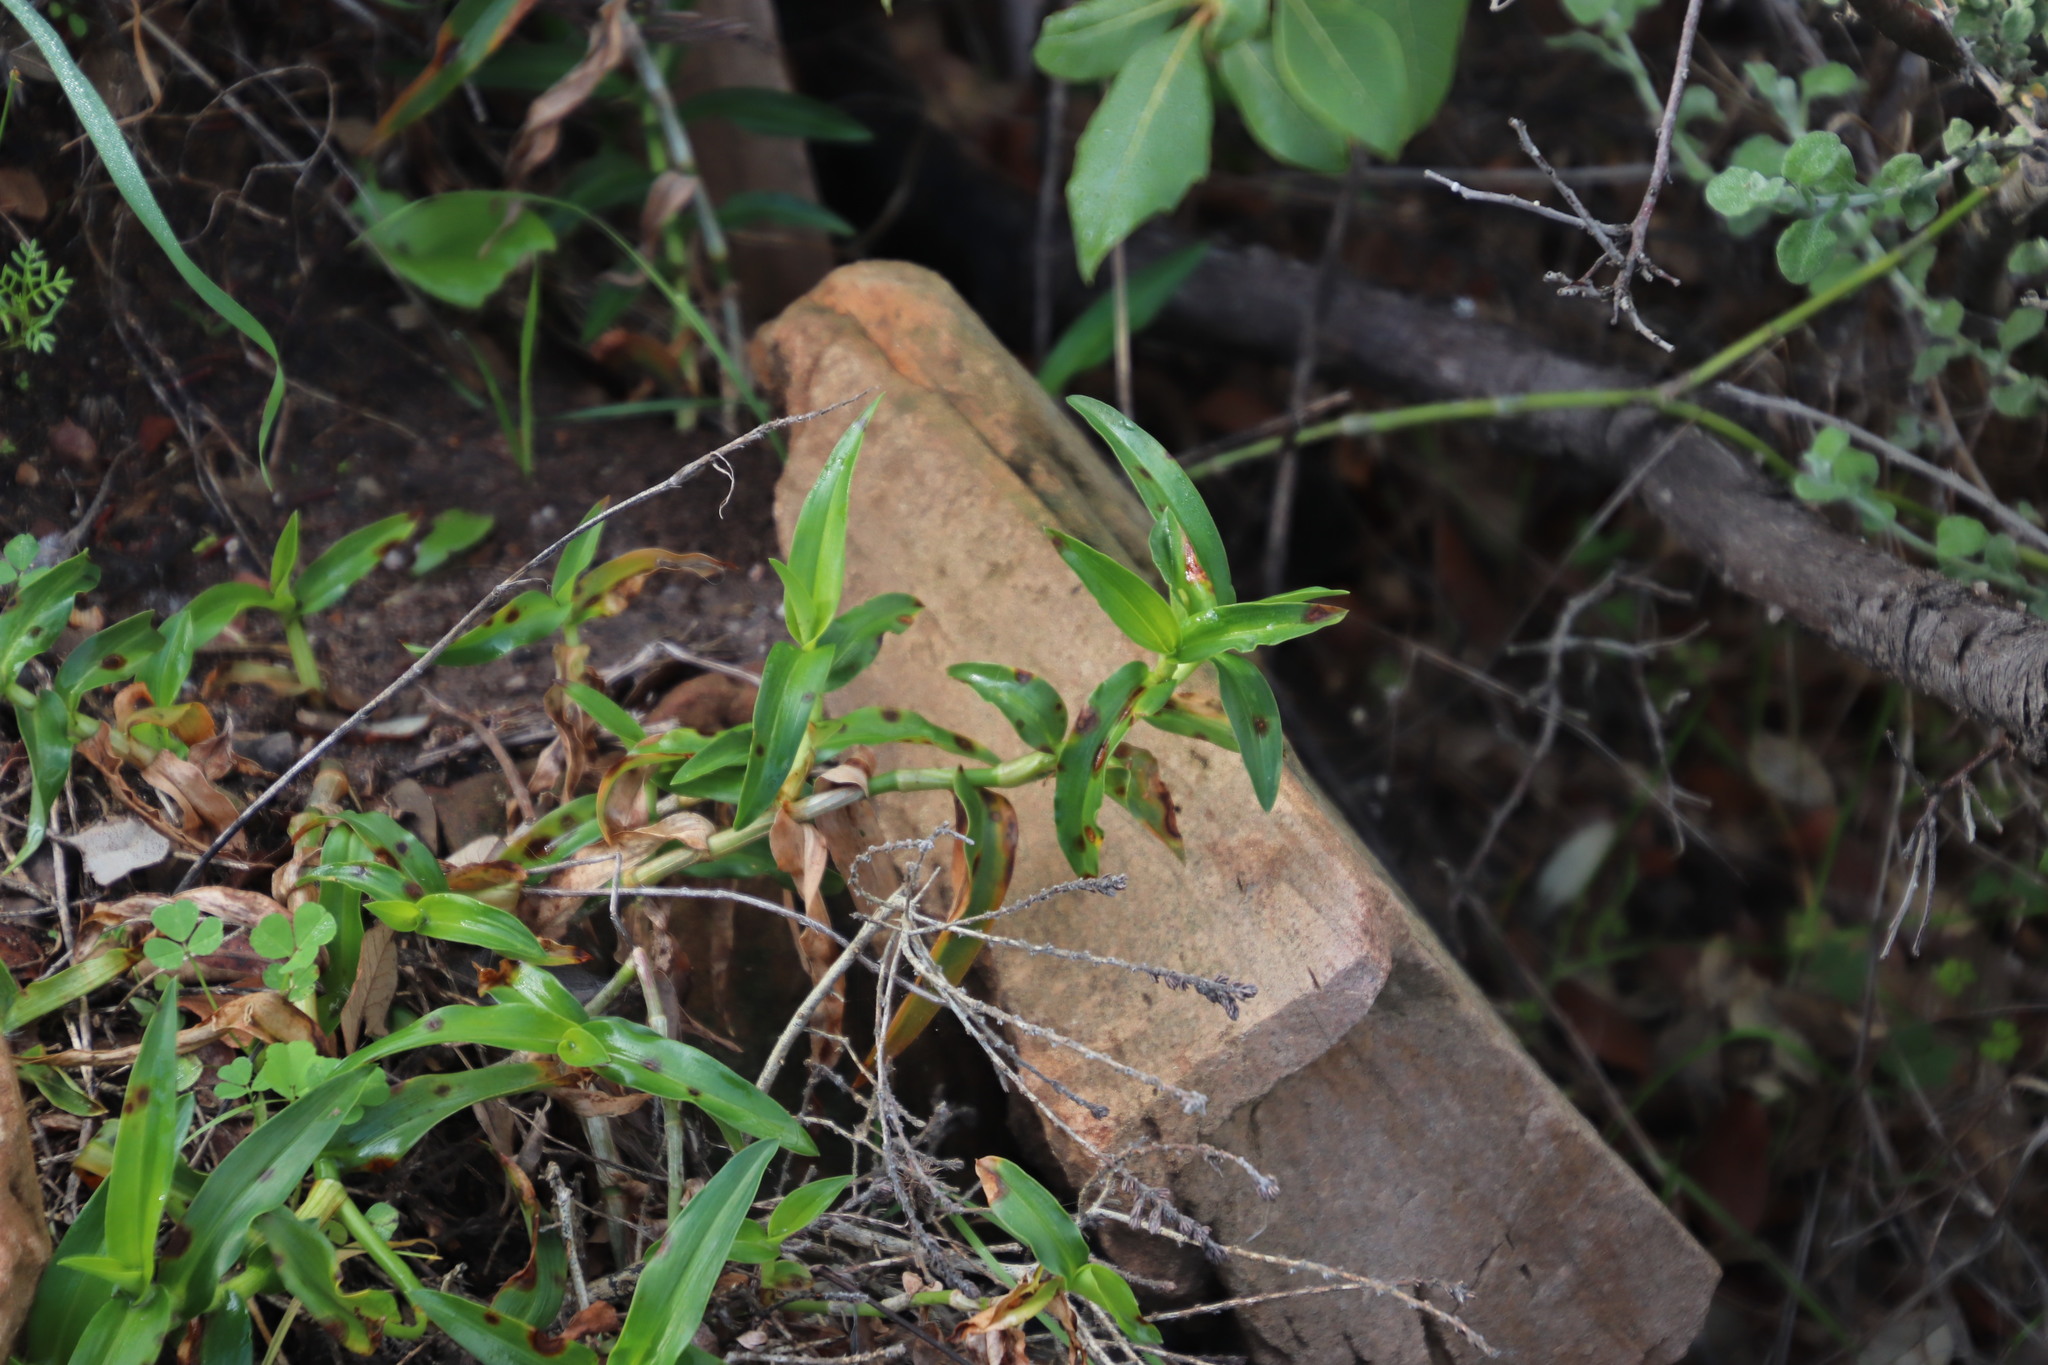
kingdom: Plantae
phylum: Tracheophyta
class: Liliopsida
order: Commelinales
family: Commelinaceae
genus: Commelina
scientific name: Commelina africana
